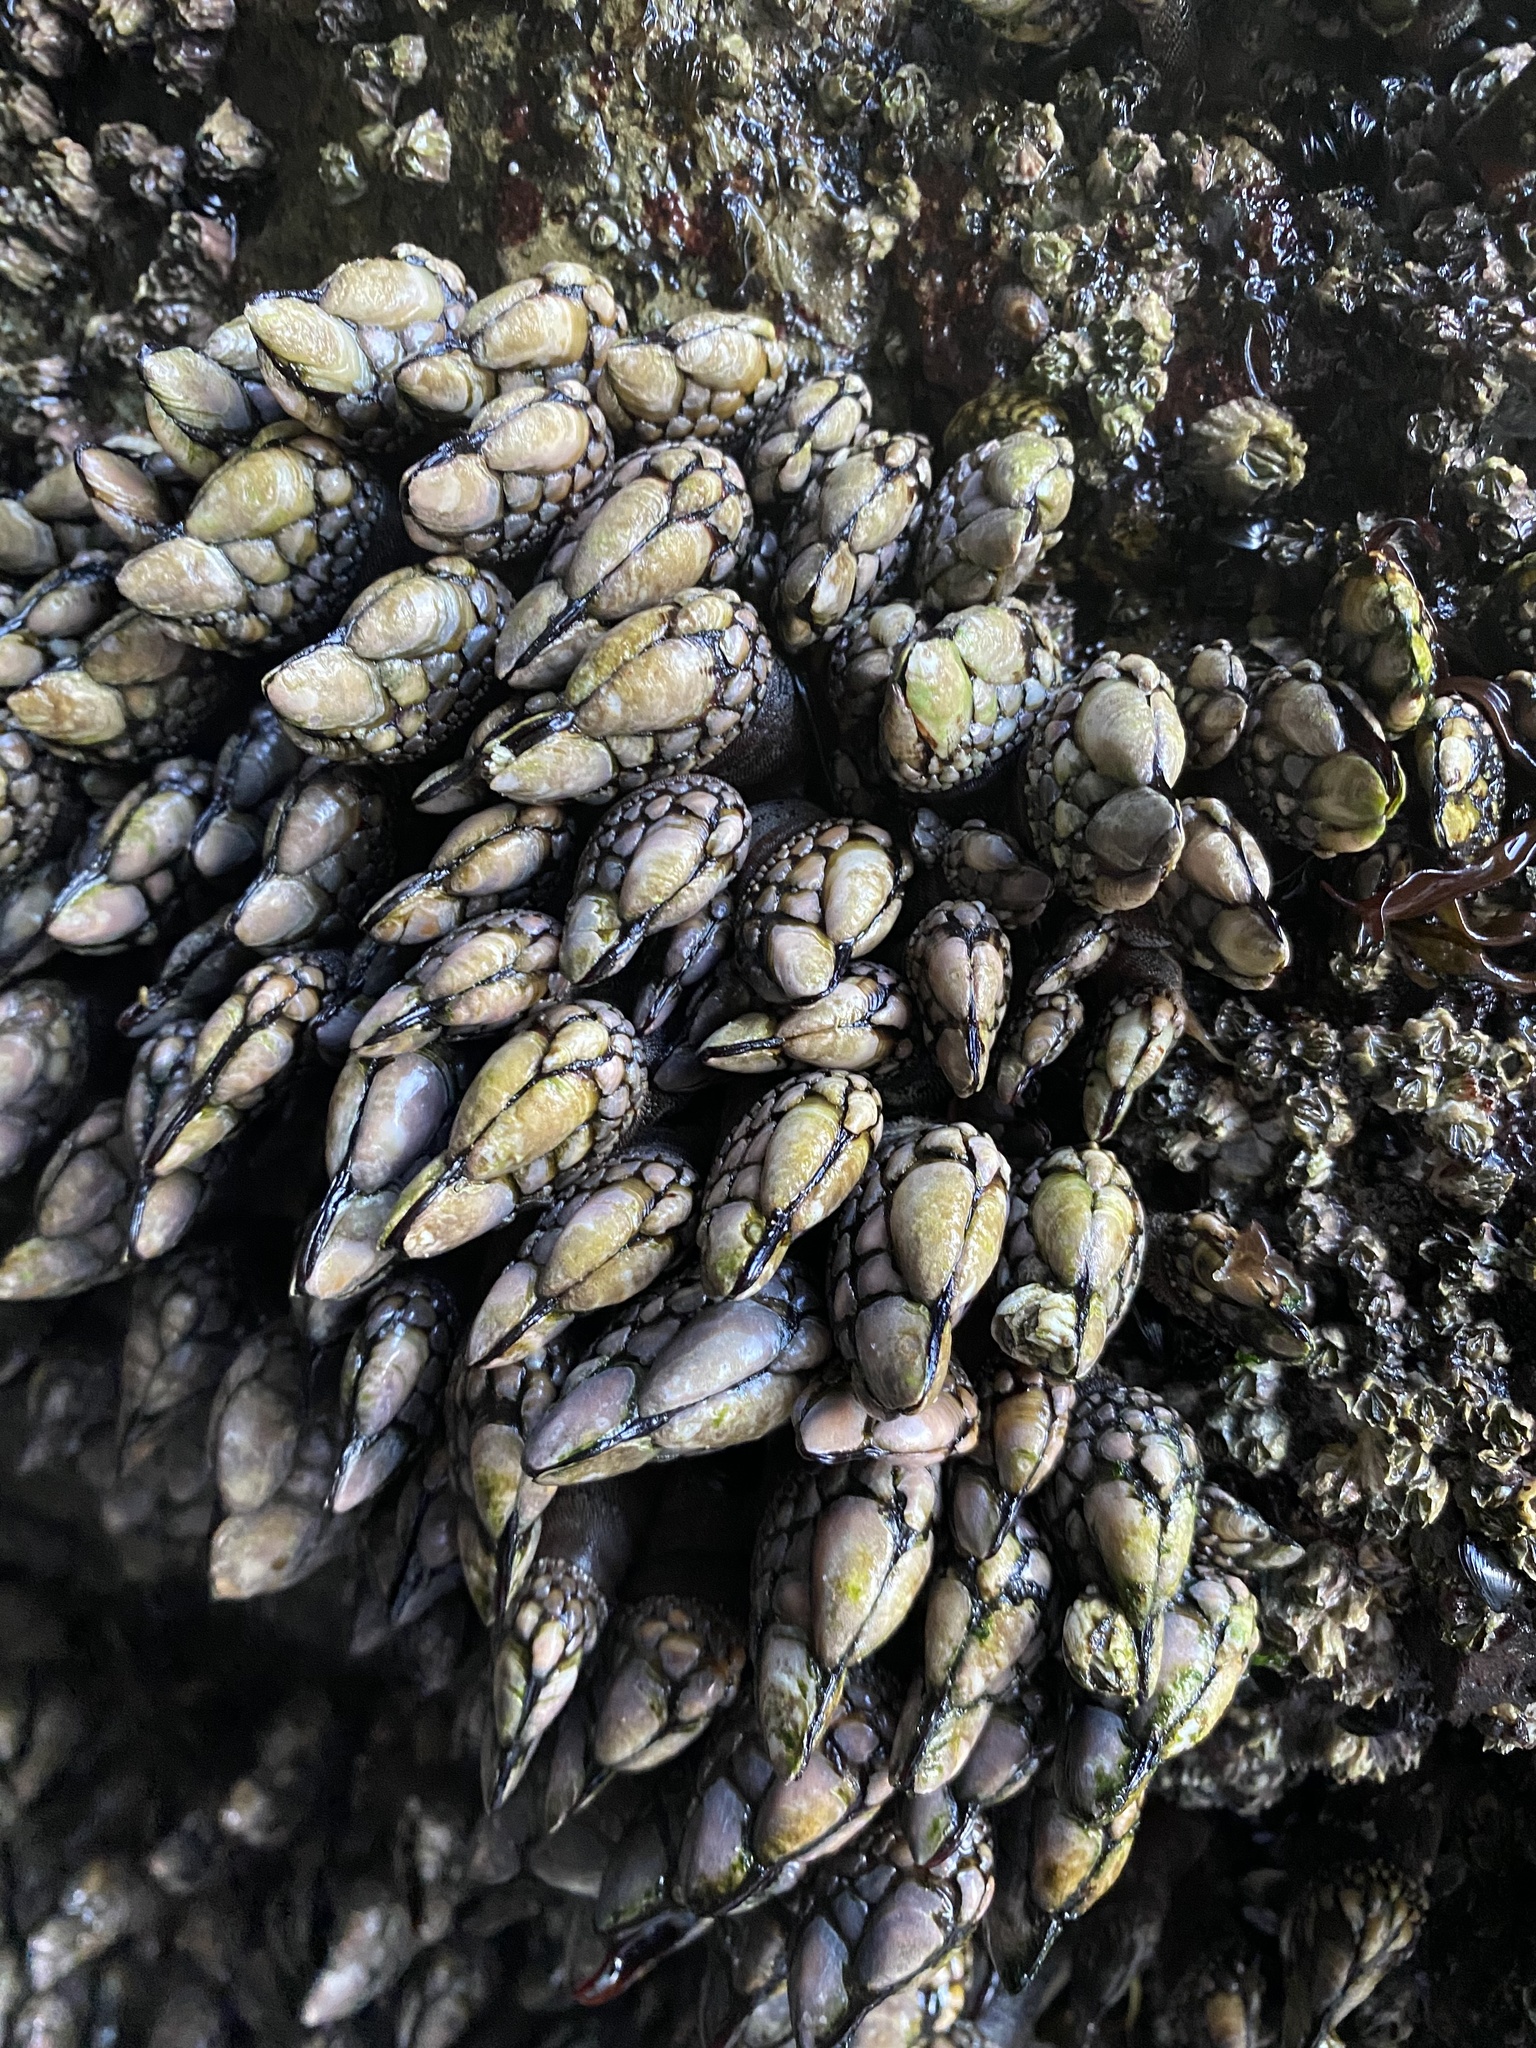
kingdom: Animalia
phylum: Arthropoda
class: Maxillopoda
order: Pedunculata
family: Pollicipedidae
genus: Pollicipes
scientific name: Pollicipes polymerus
